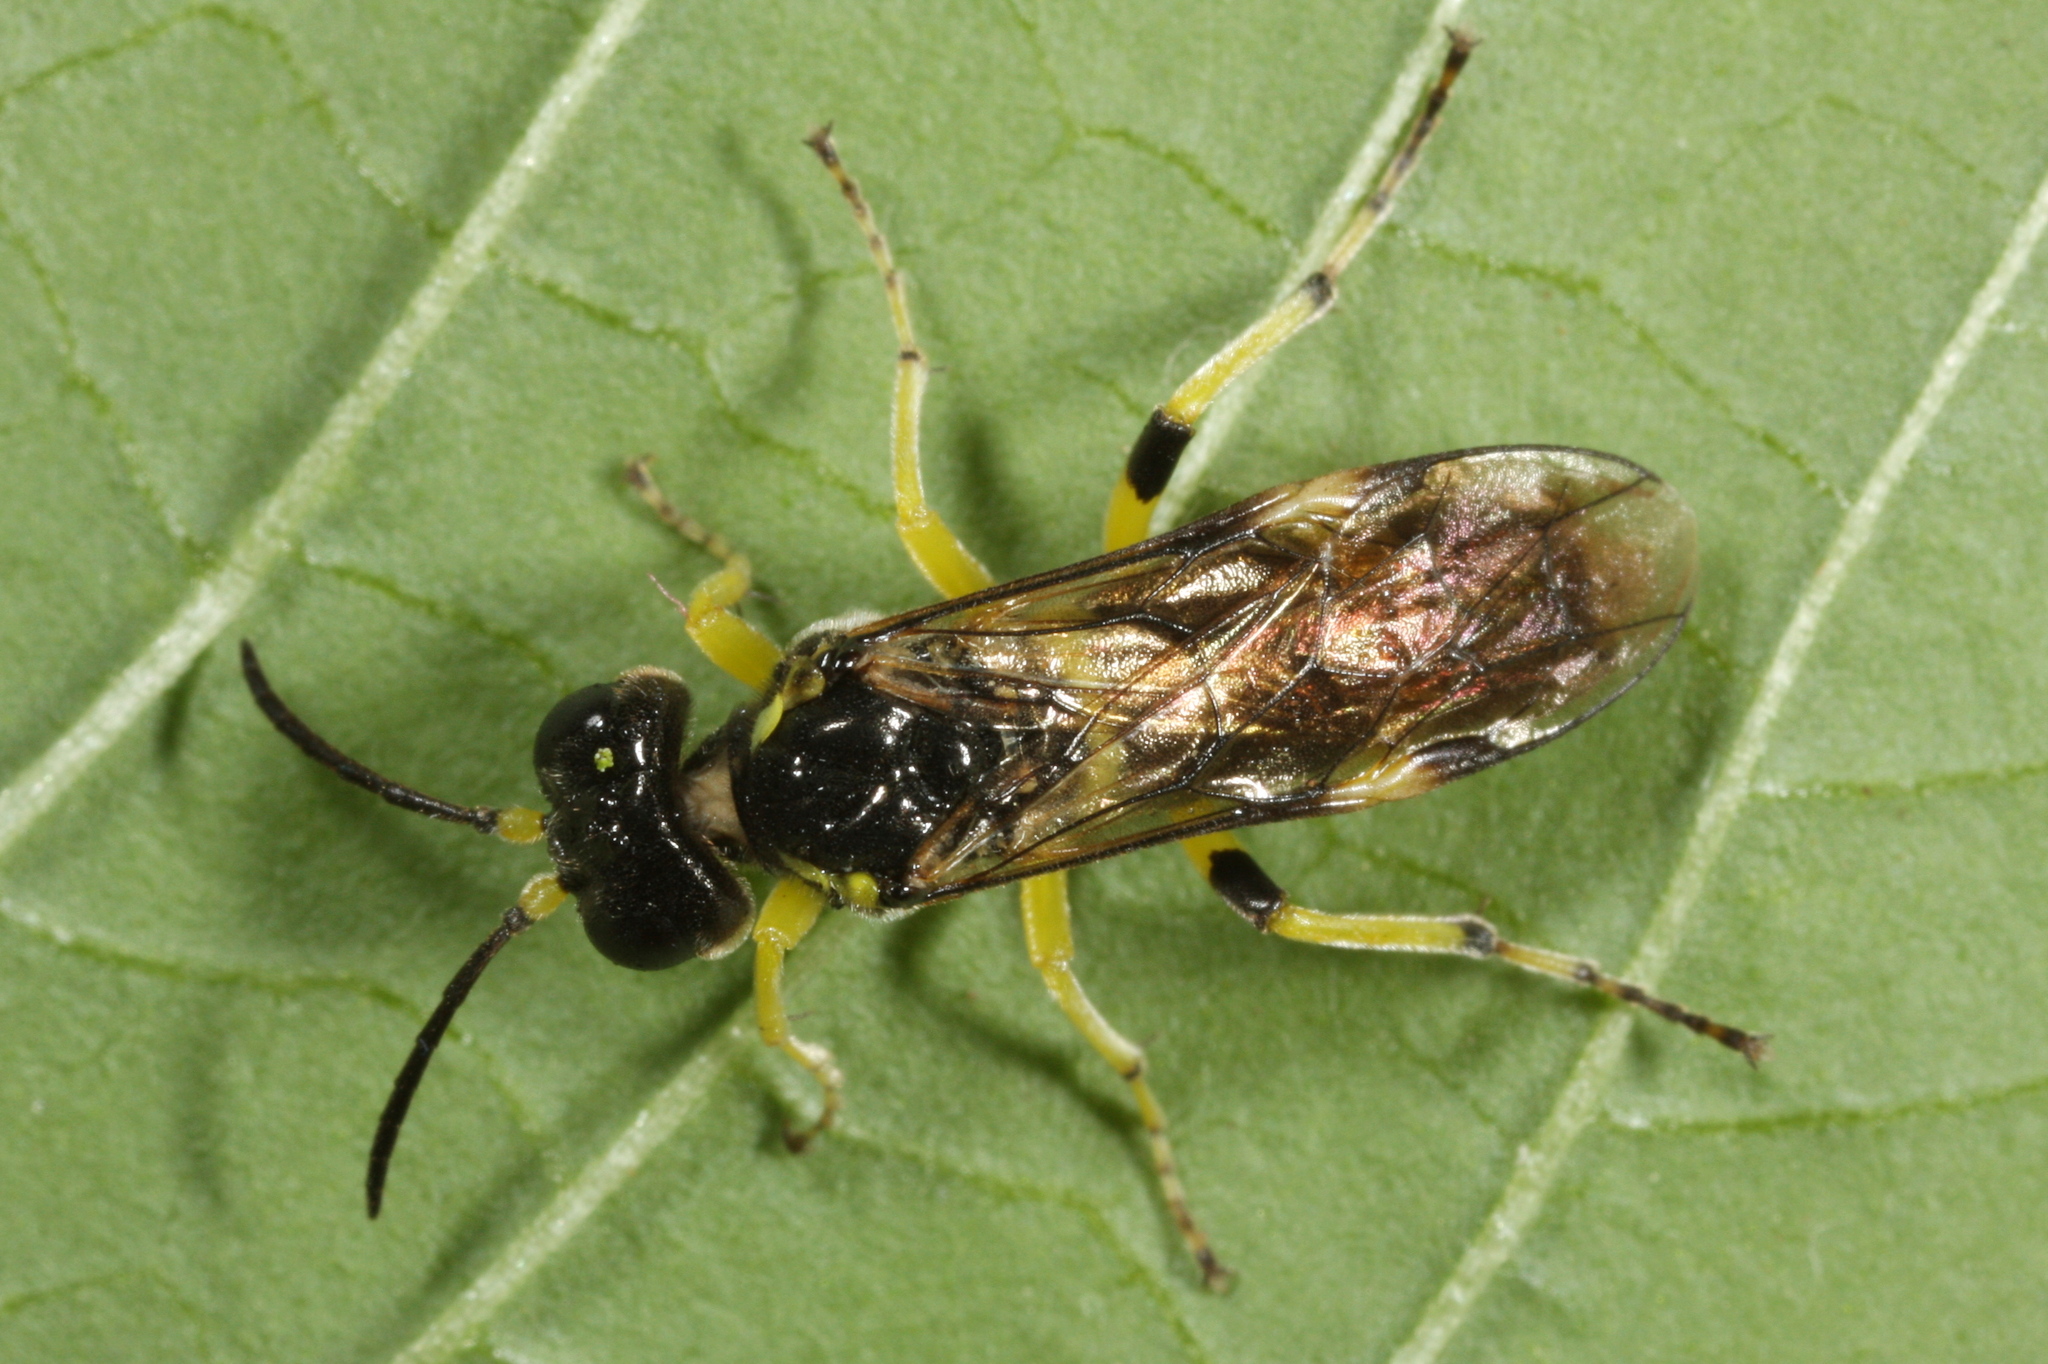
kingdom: Animalia
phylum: Arthropoda
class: Insecta
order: Hymenoptera
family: Tenthredinidae
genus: Tenthredo
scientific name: Tenthredo zonula
